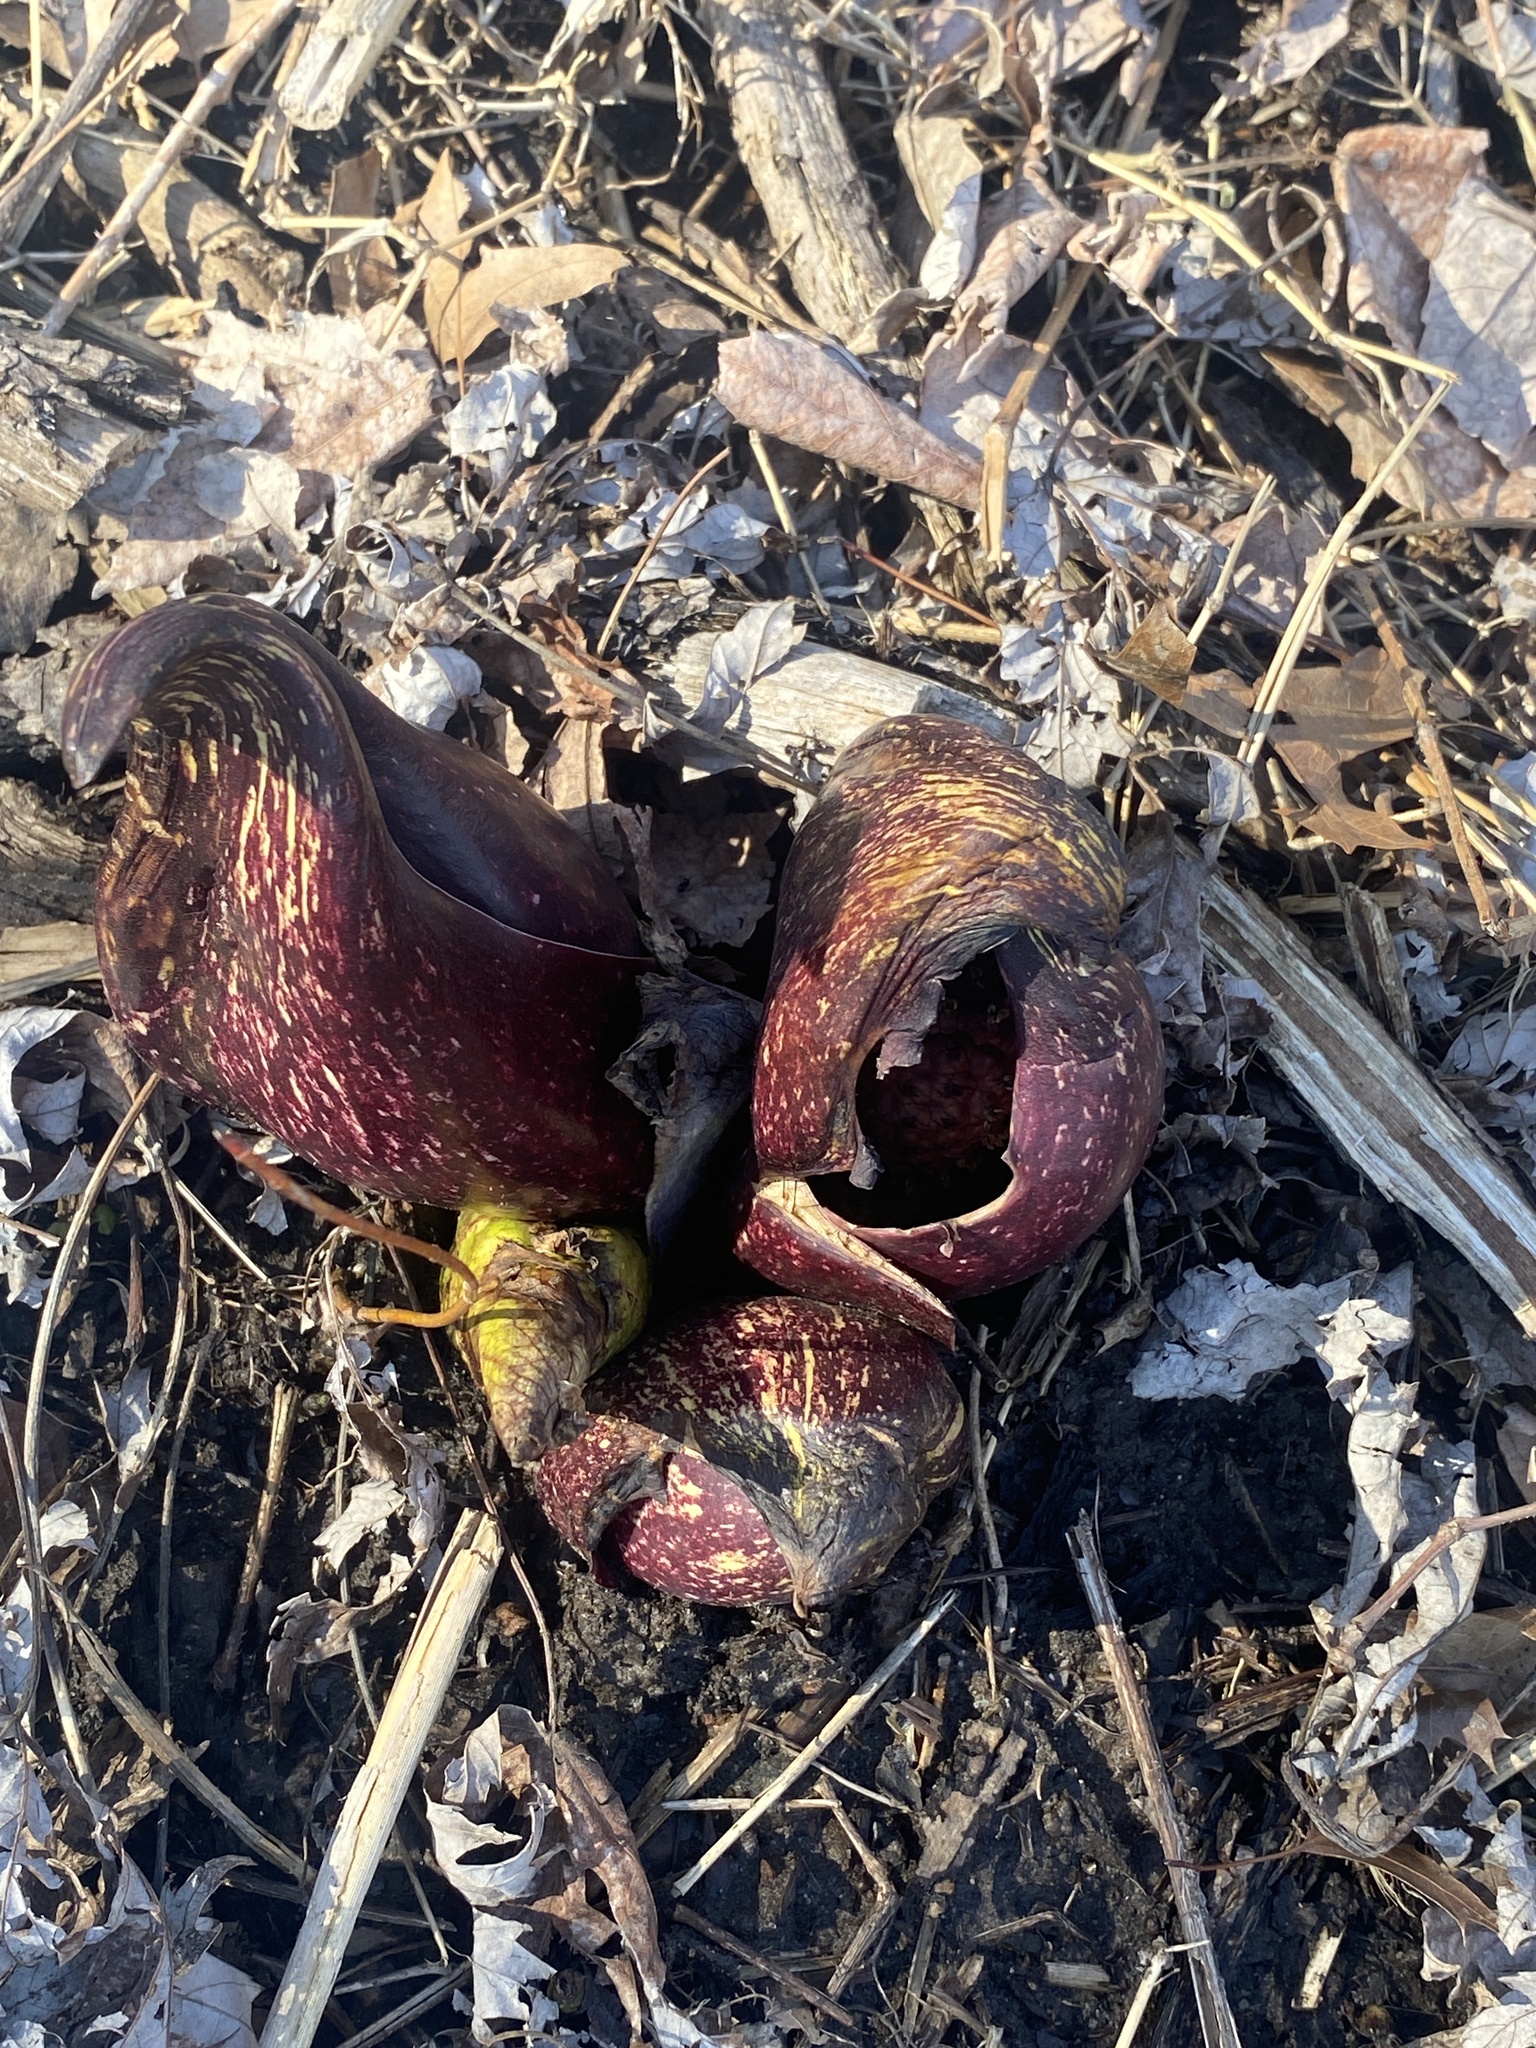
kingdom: Plantae
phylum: Tracheophyta
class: Liliopsida
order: Alismatales
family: Araceae
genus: Symplocarpus
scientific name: Symplocarpus foetidus
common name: Eastern skunk cabbage
